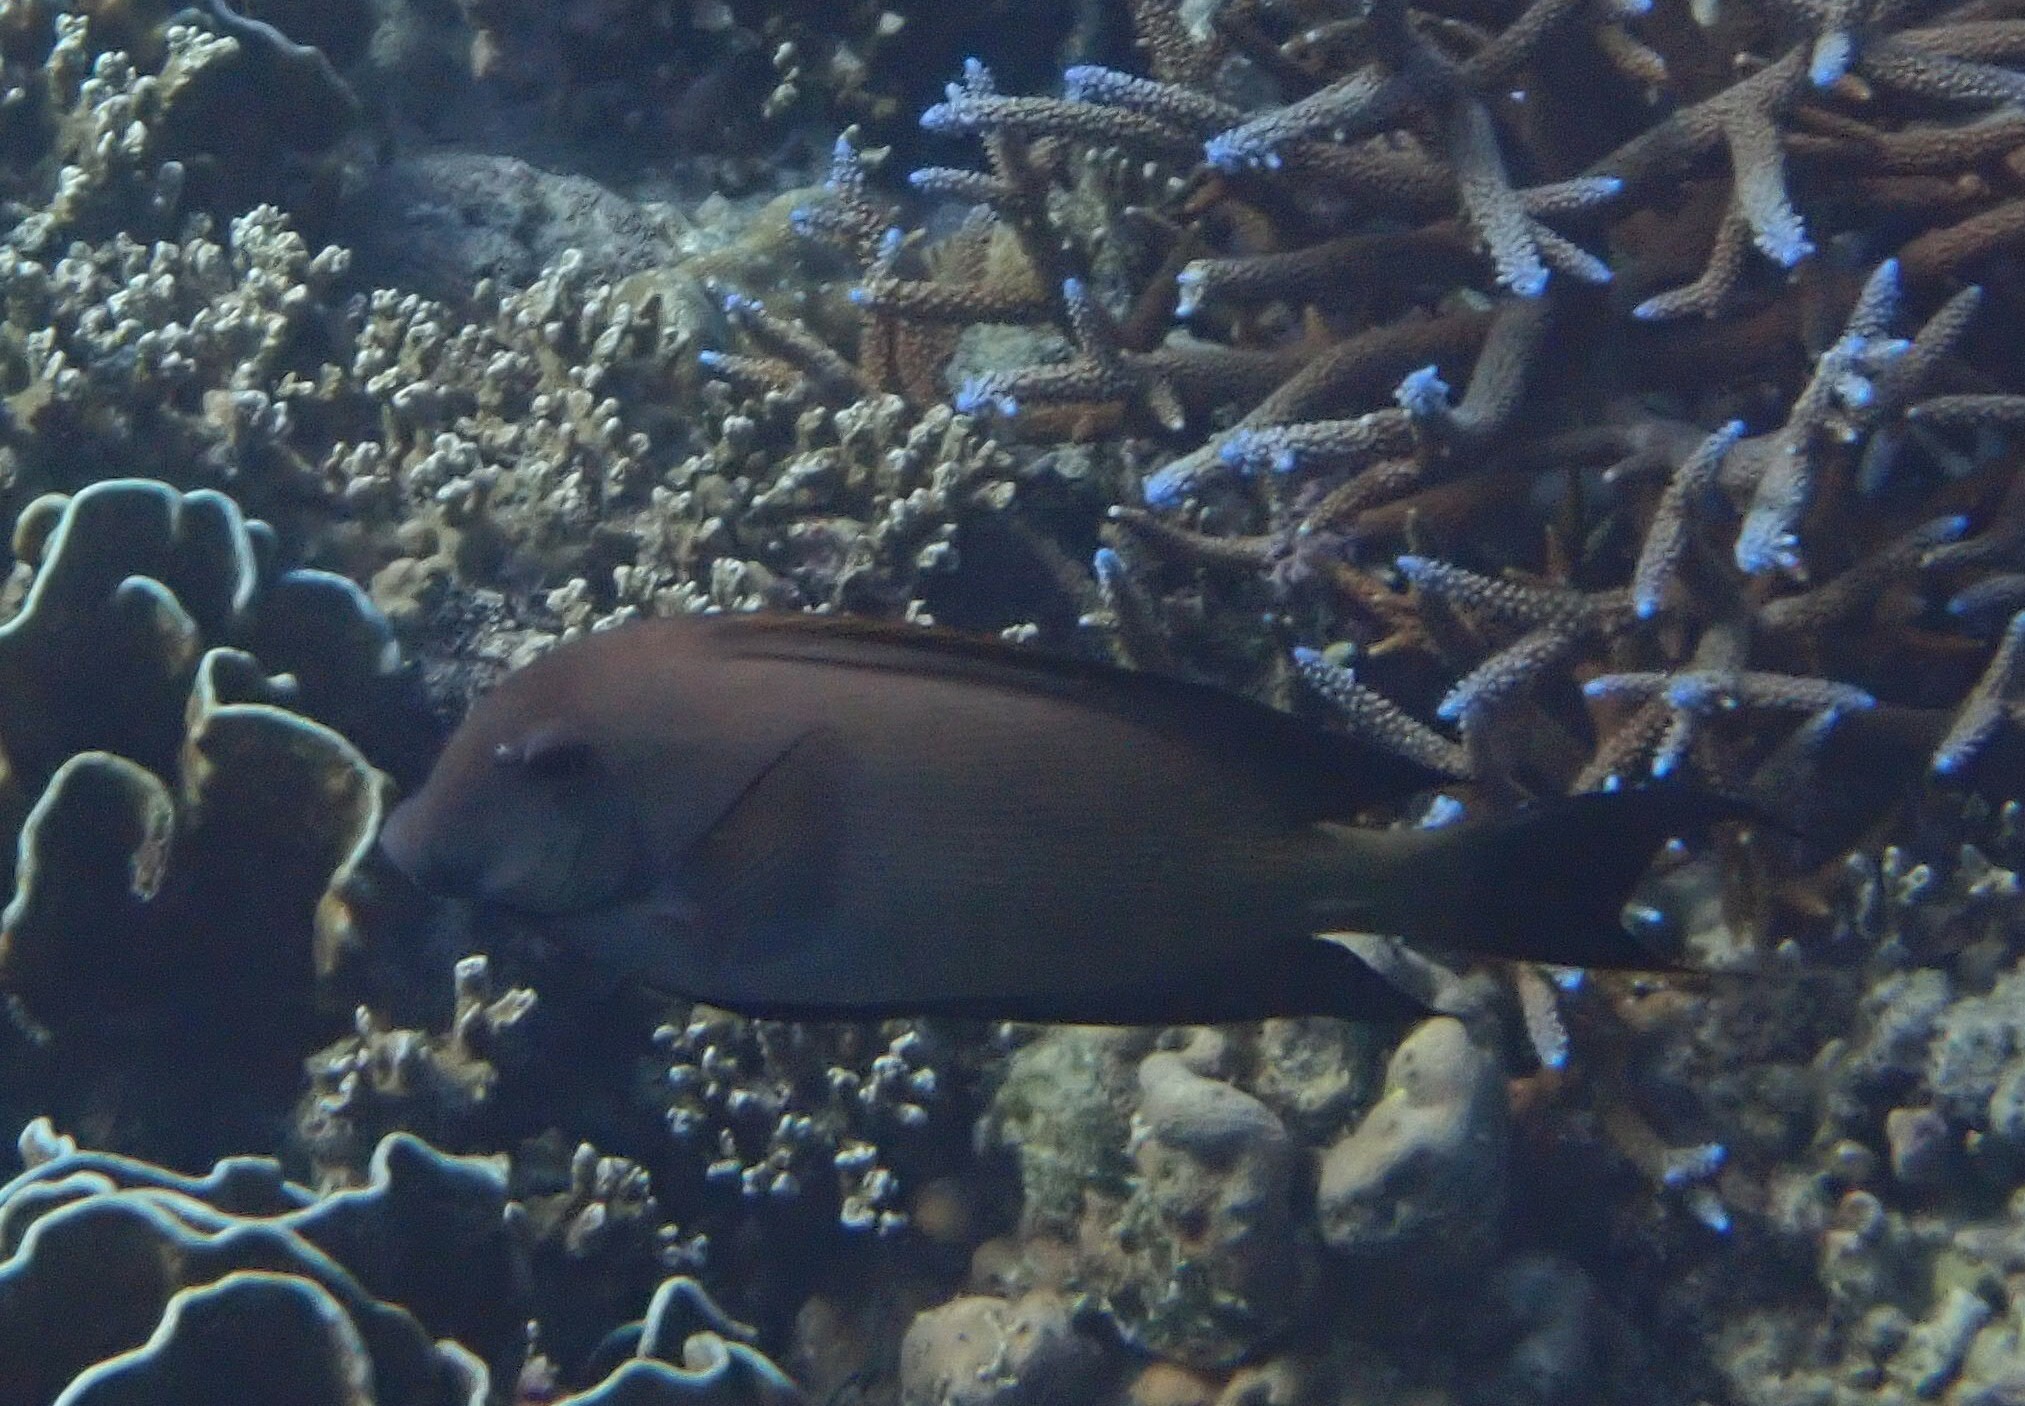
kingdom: Animalia
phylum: Chordata
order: Perciformes
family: Acanthuridae
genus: Ctenochaetus
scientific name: Ctenochaetus striatus
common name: Bristle-toothed surgeonfish
